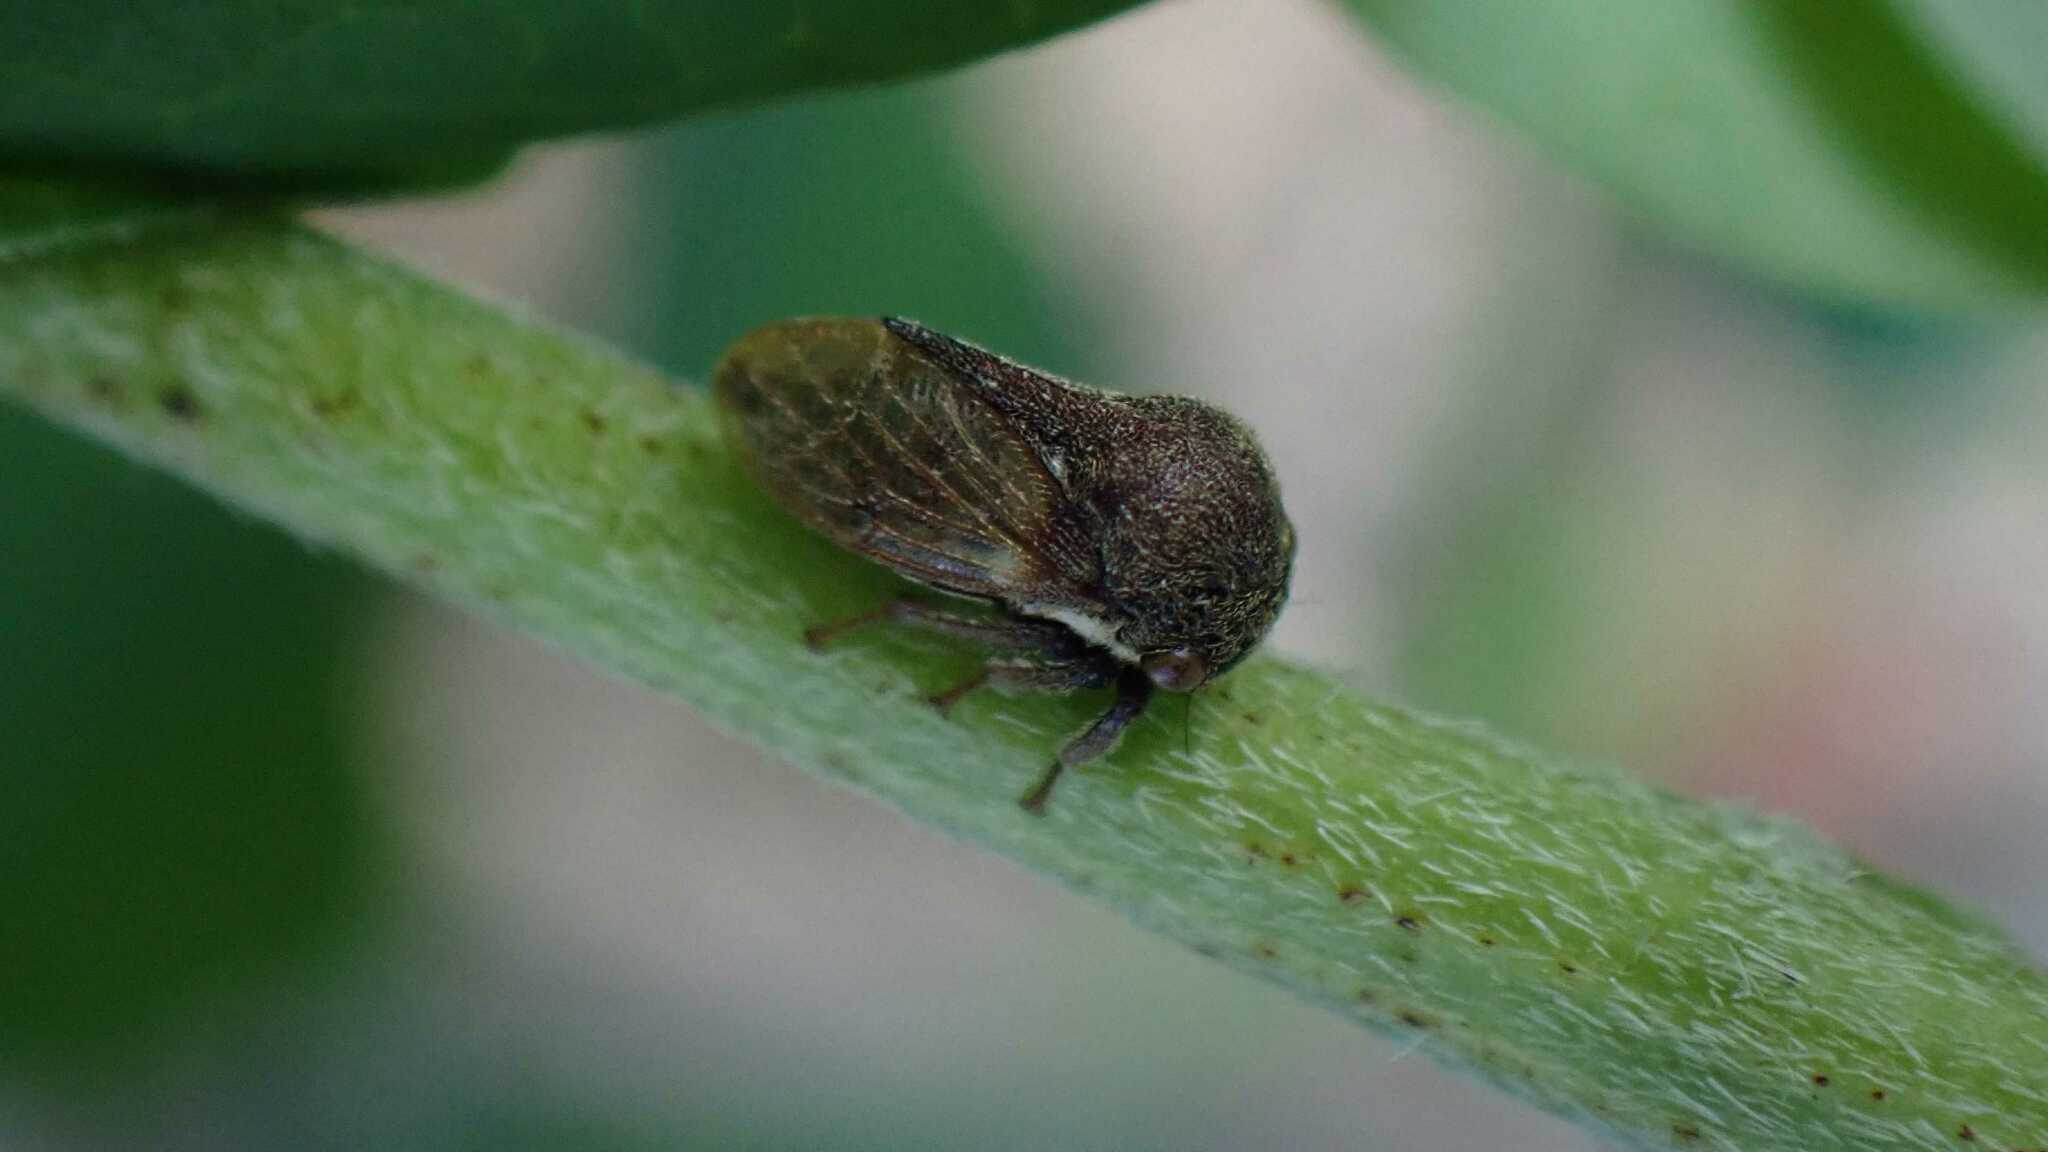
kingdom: Animalia
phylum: Arthropoda
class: Insecta
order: Hemiptera
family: Membracidae
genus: Gargara
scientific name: Gargara genistae
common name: Treehopper
